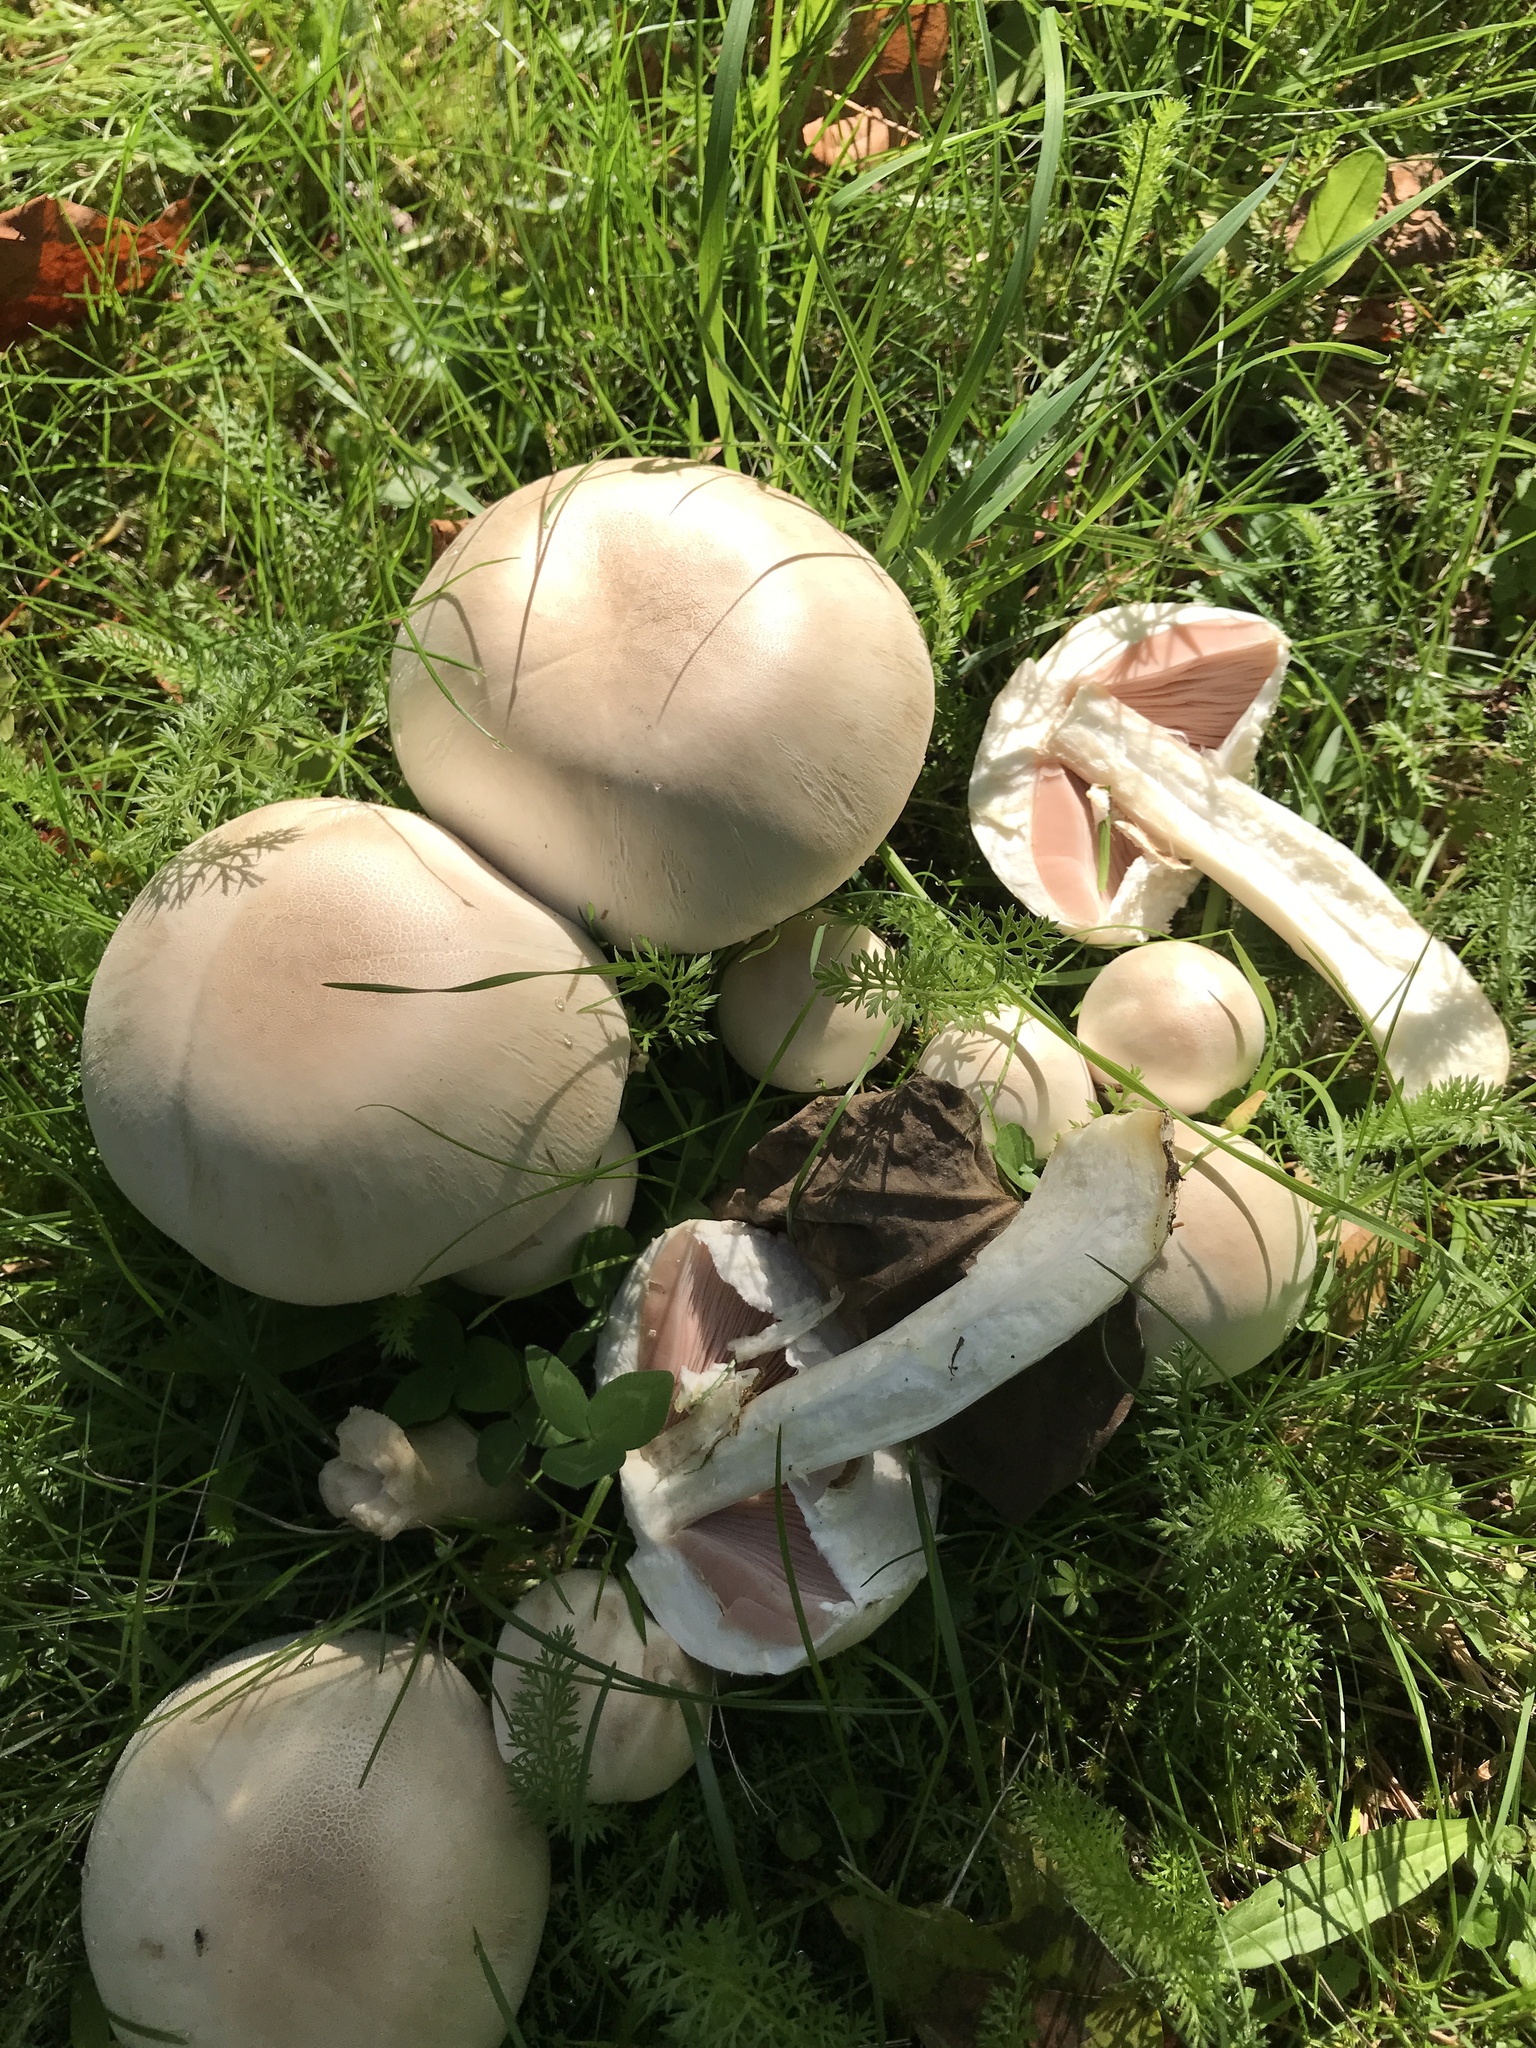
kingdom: Fungi
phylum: Basidiomycota
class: Agaricomycetes
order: Agaricales
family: Agaricaceae
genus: Agaricus
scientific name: Agaricus xanthodermus
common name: Yellow stainer
